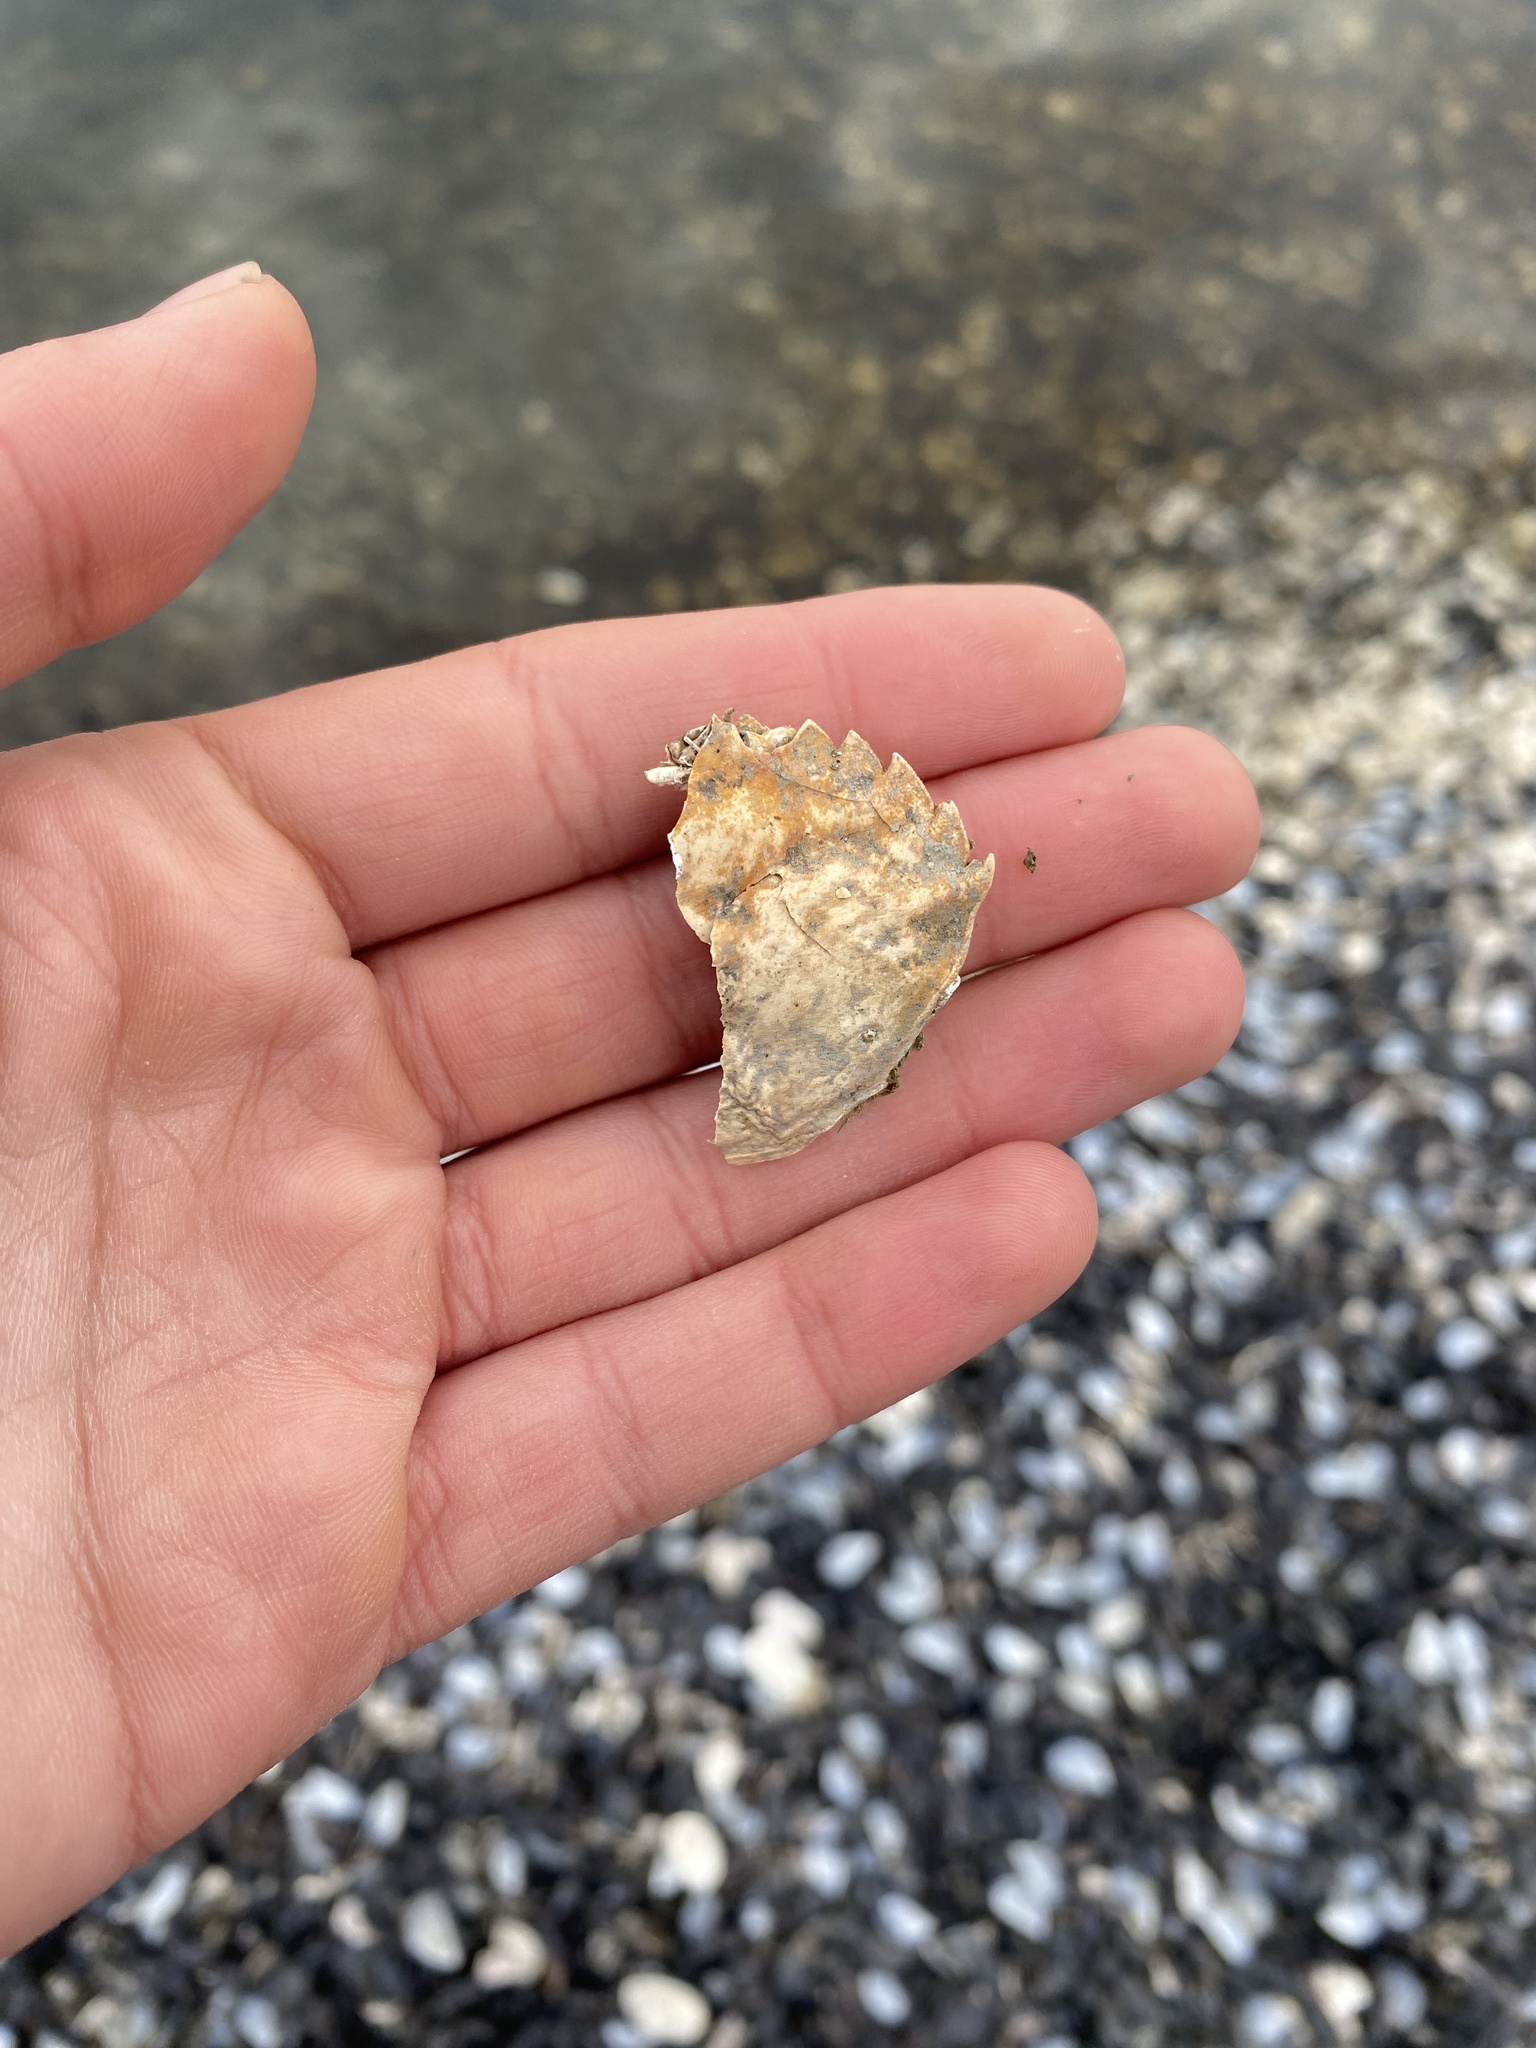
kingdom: Animalia
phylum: Arthropoda
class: Malacostraca
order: Decapoda
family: Carcinidae
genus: Carcinus
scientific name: Carcinus maenas
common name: European green crab
